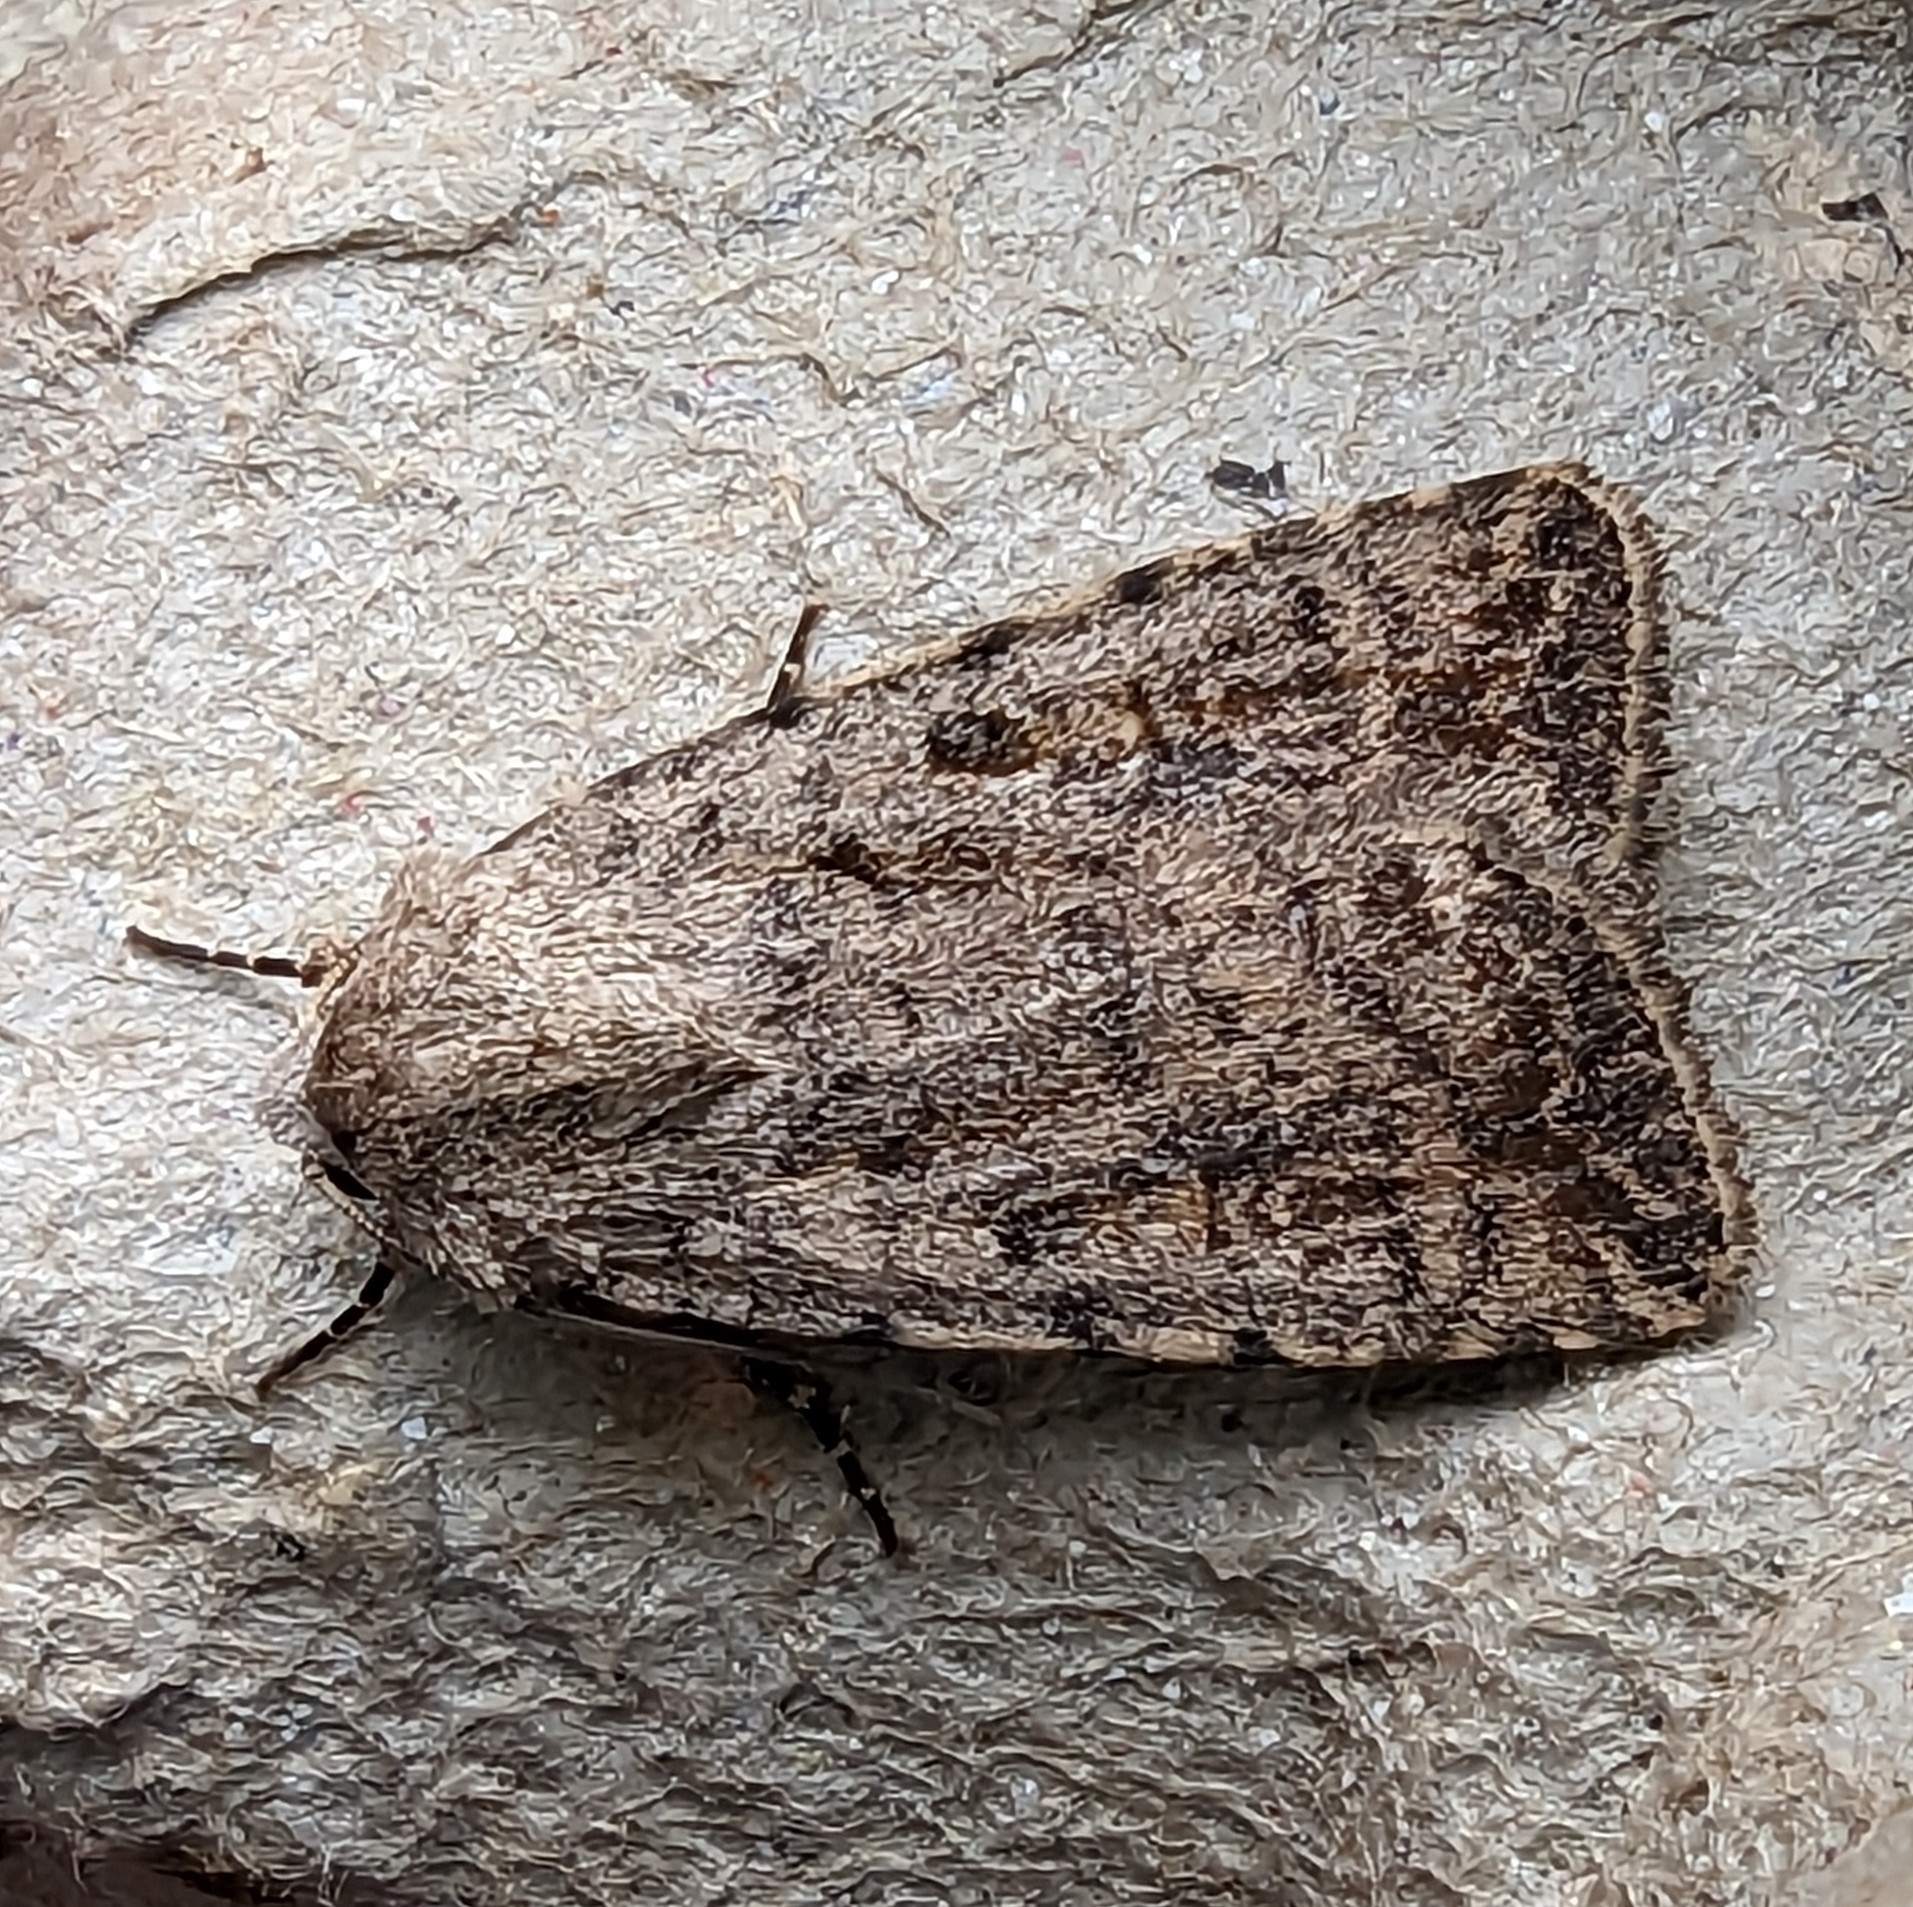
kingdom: Animalia
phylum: Arthropoda
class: Insecta
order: Lepidoptera
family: Noctuidae
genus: Caradrina
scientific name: Caradrina clavipalpis
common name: Pale mottled willow
